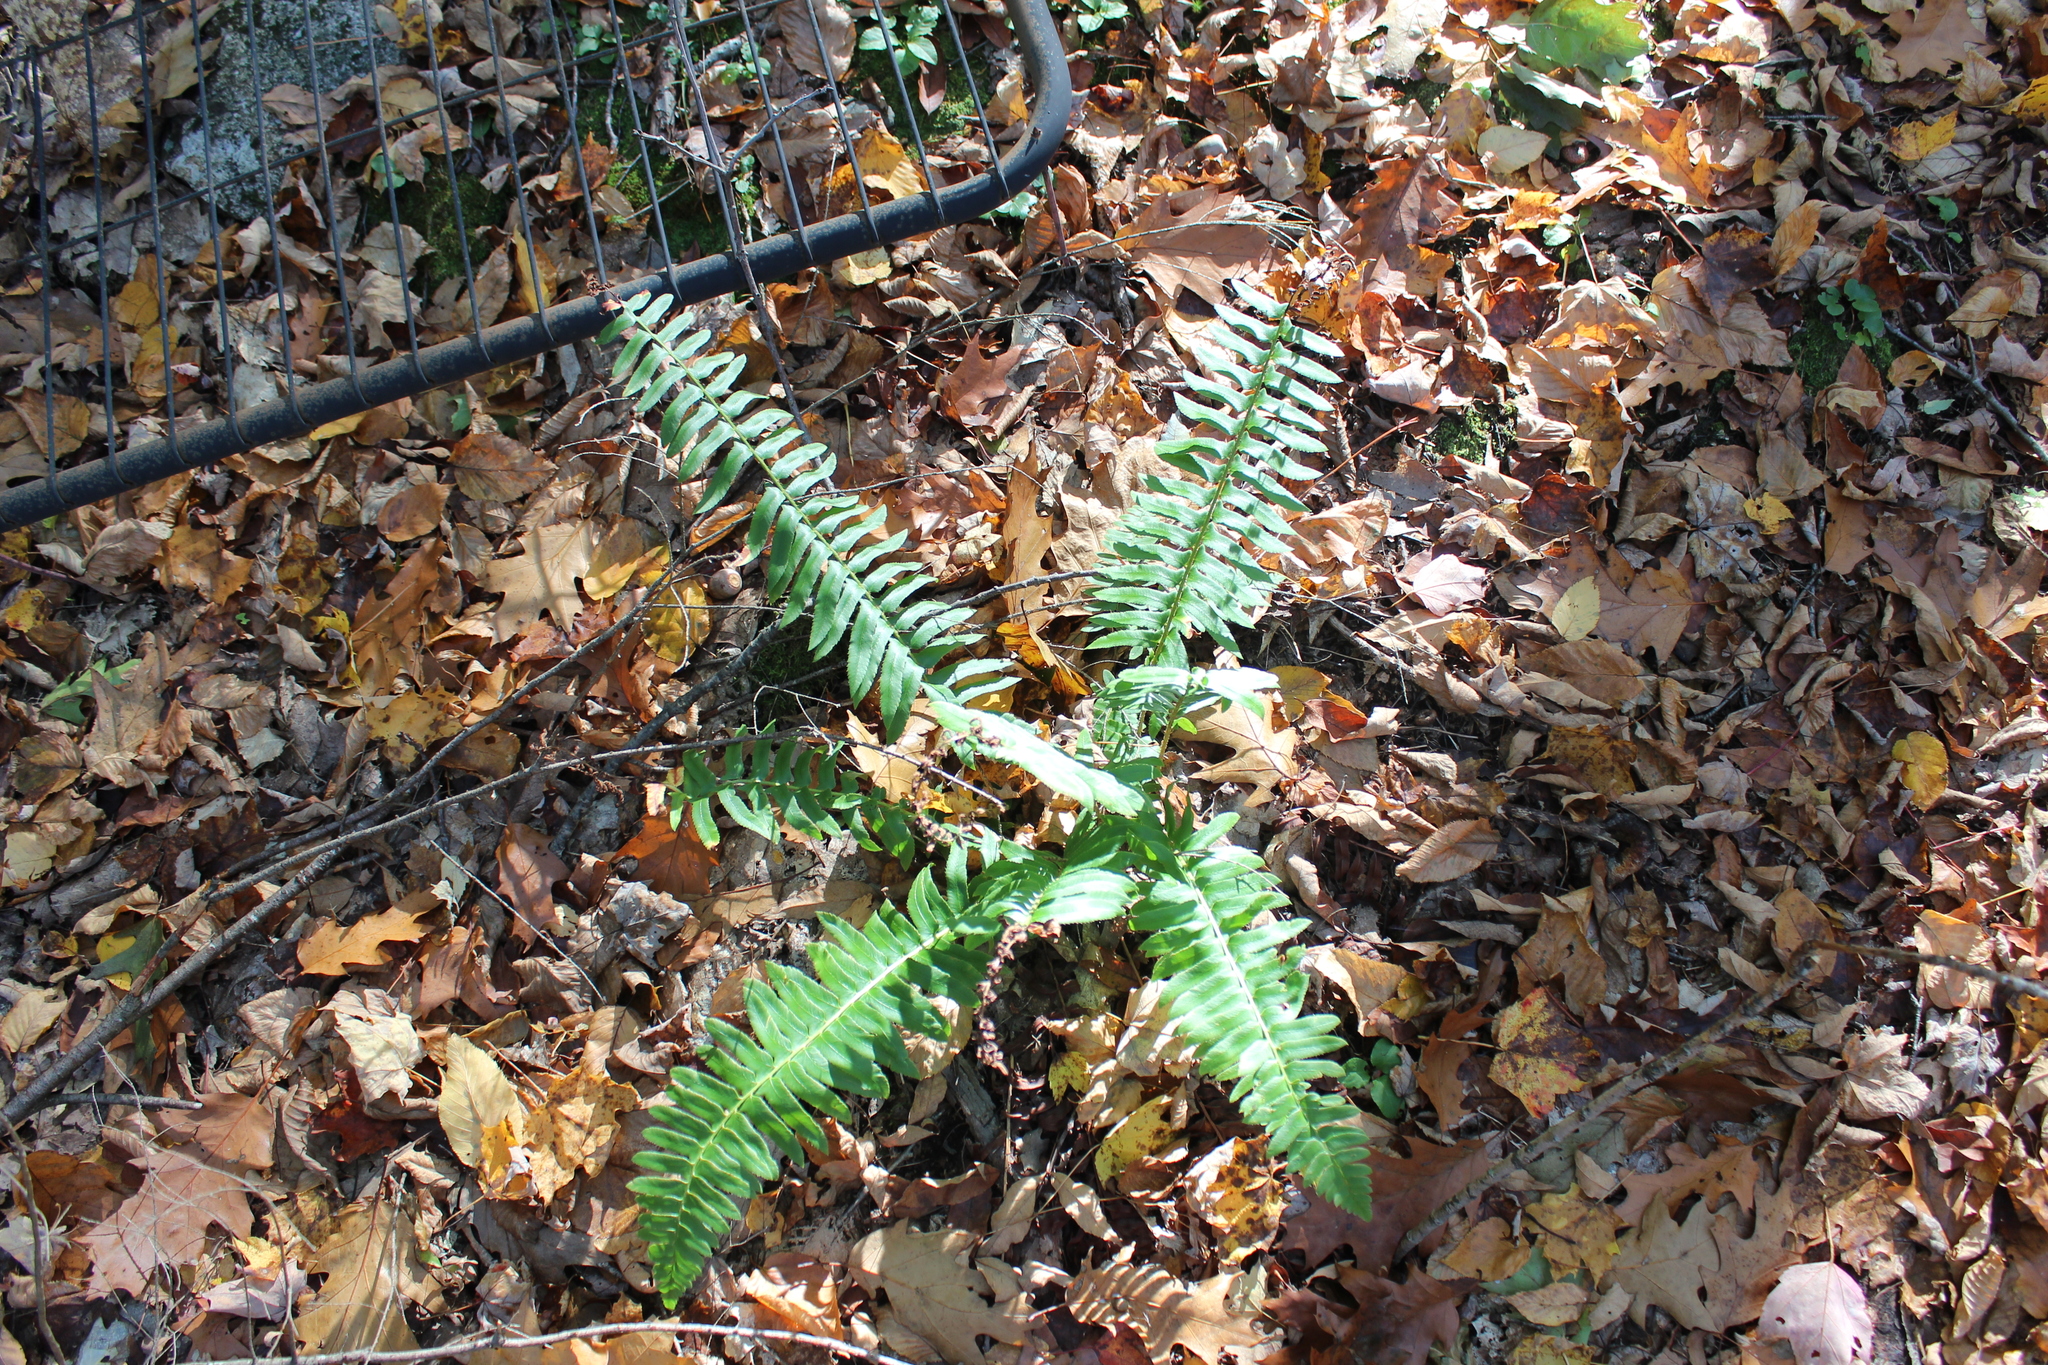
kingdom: Plantae
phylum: Tracheophyta
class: Polypodiopsida
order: Polypodiales
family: Dryopteridaceae
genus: Polystichum
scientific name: Polystichum acrostichoides
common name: Christmas fern
